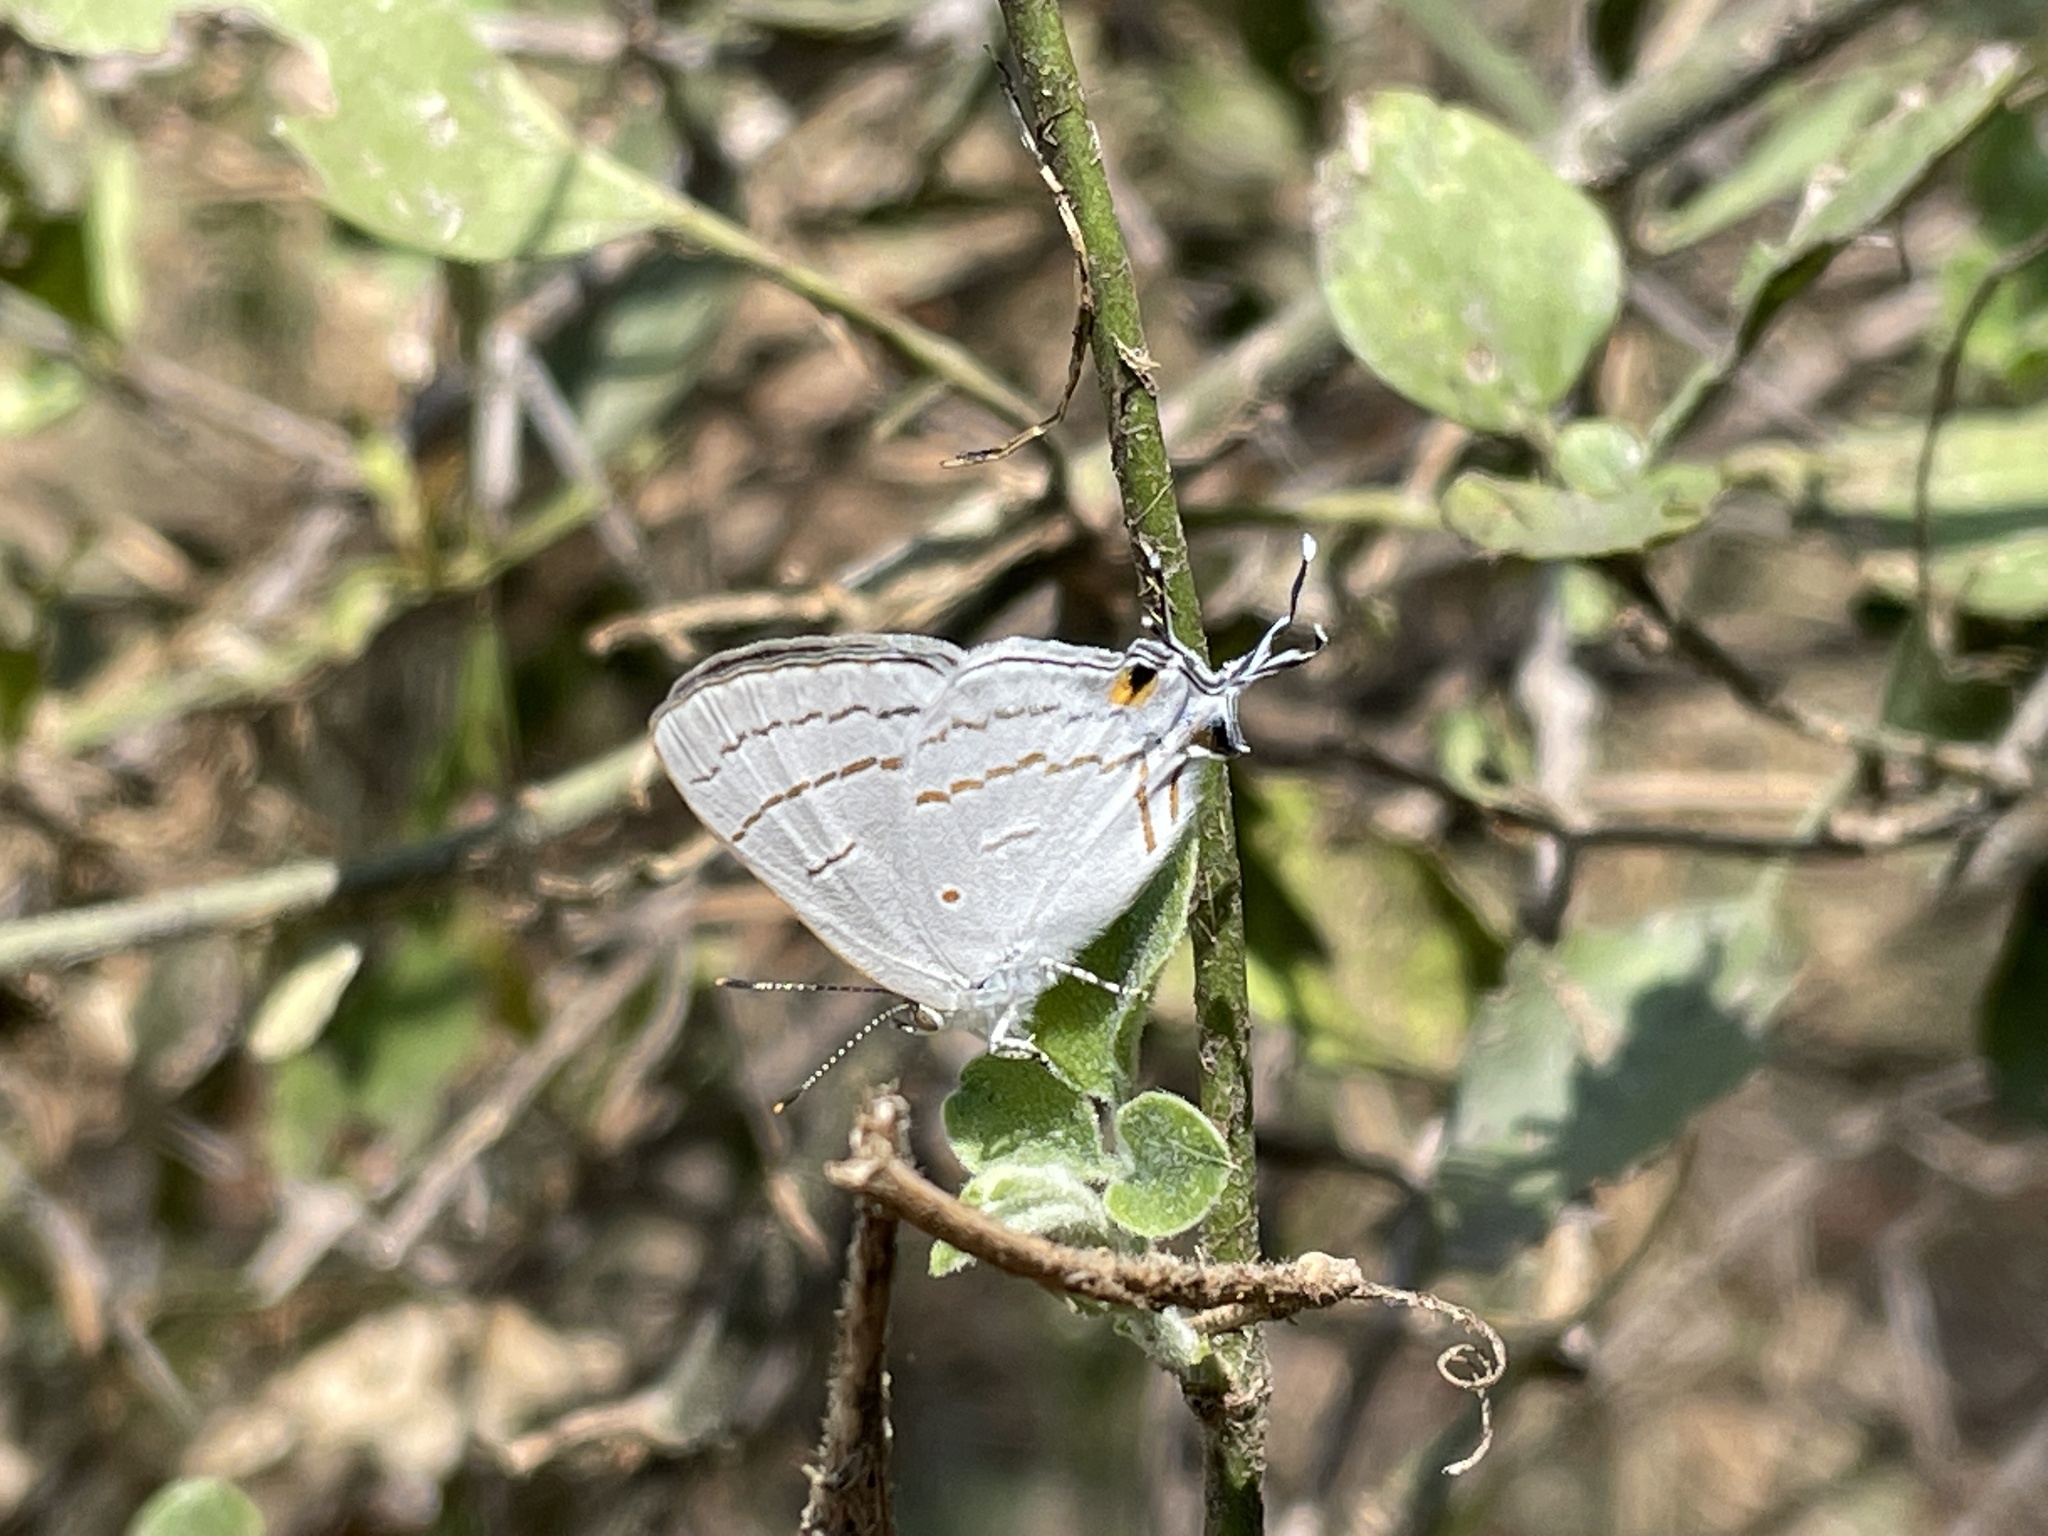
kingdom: Animalia
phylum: Arthropoda
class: Insecta
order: Lepidoptera
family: Lycaenidae
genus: Hypolycaena
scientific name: Hypolycaena philippus
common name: Common hairstreak
